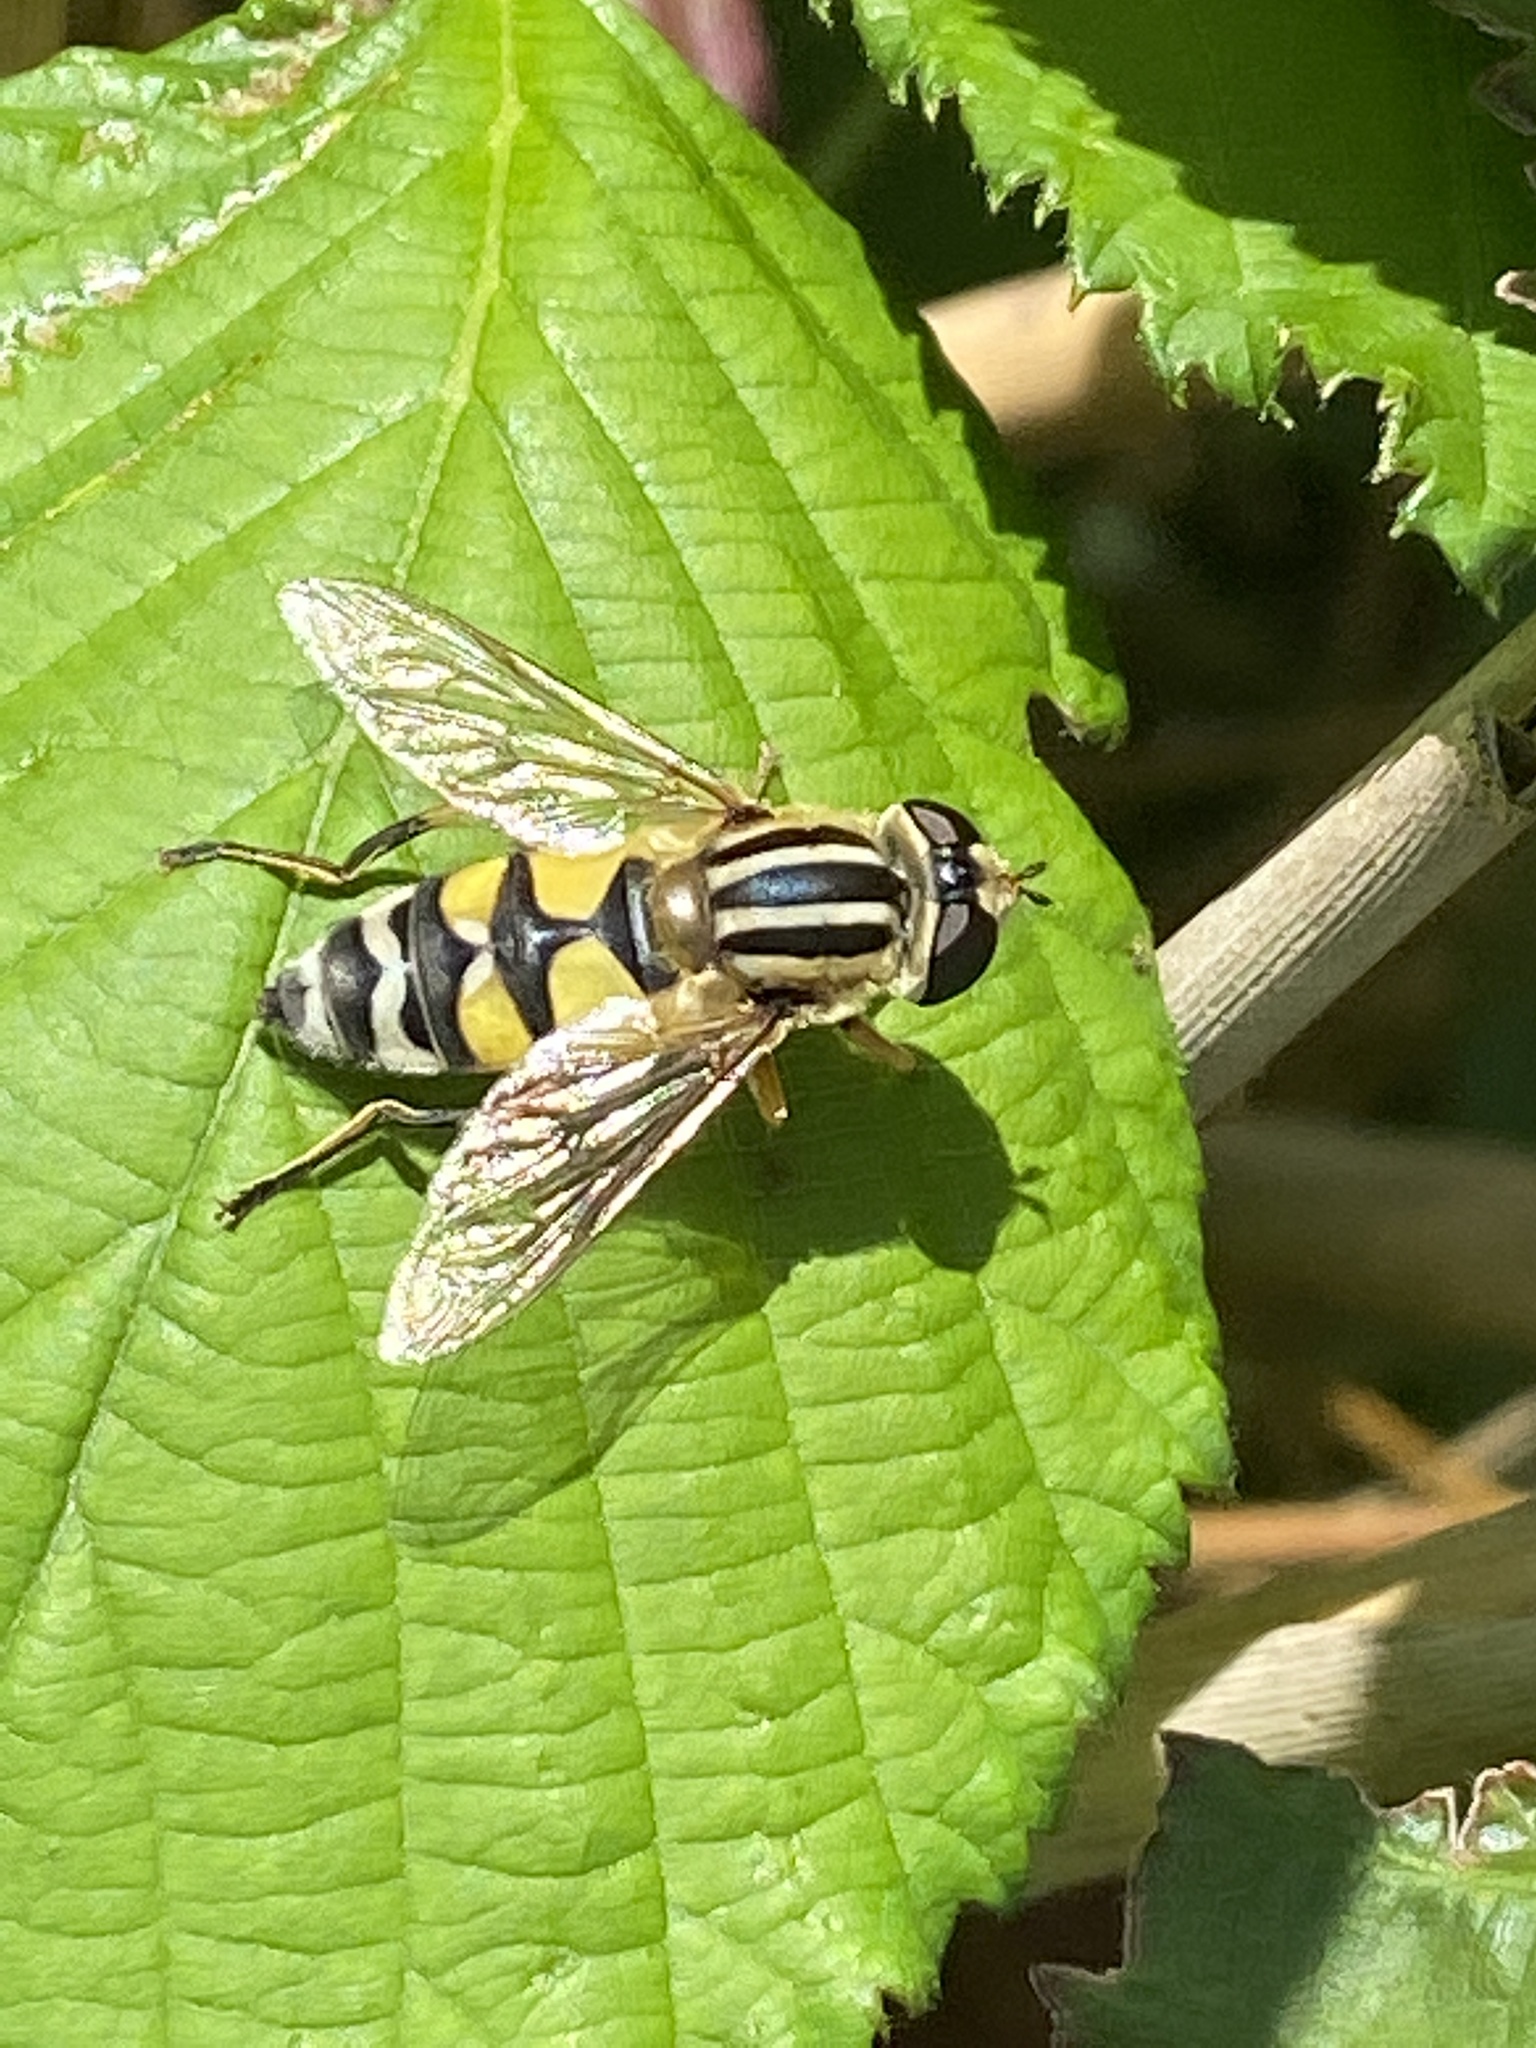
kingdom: Animalia
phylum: Arthropoda
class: Insecta
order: Diptera
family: Syrphidae
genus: Helophilus
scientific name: Helophilus trivittatus
